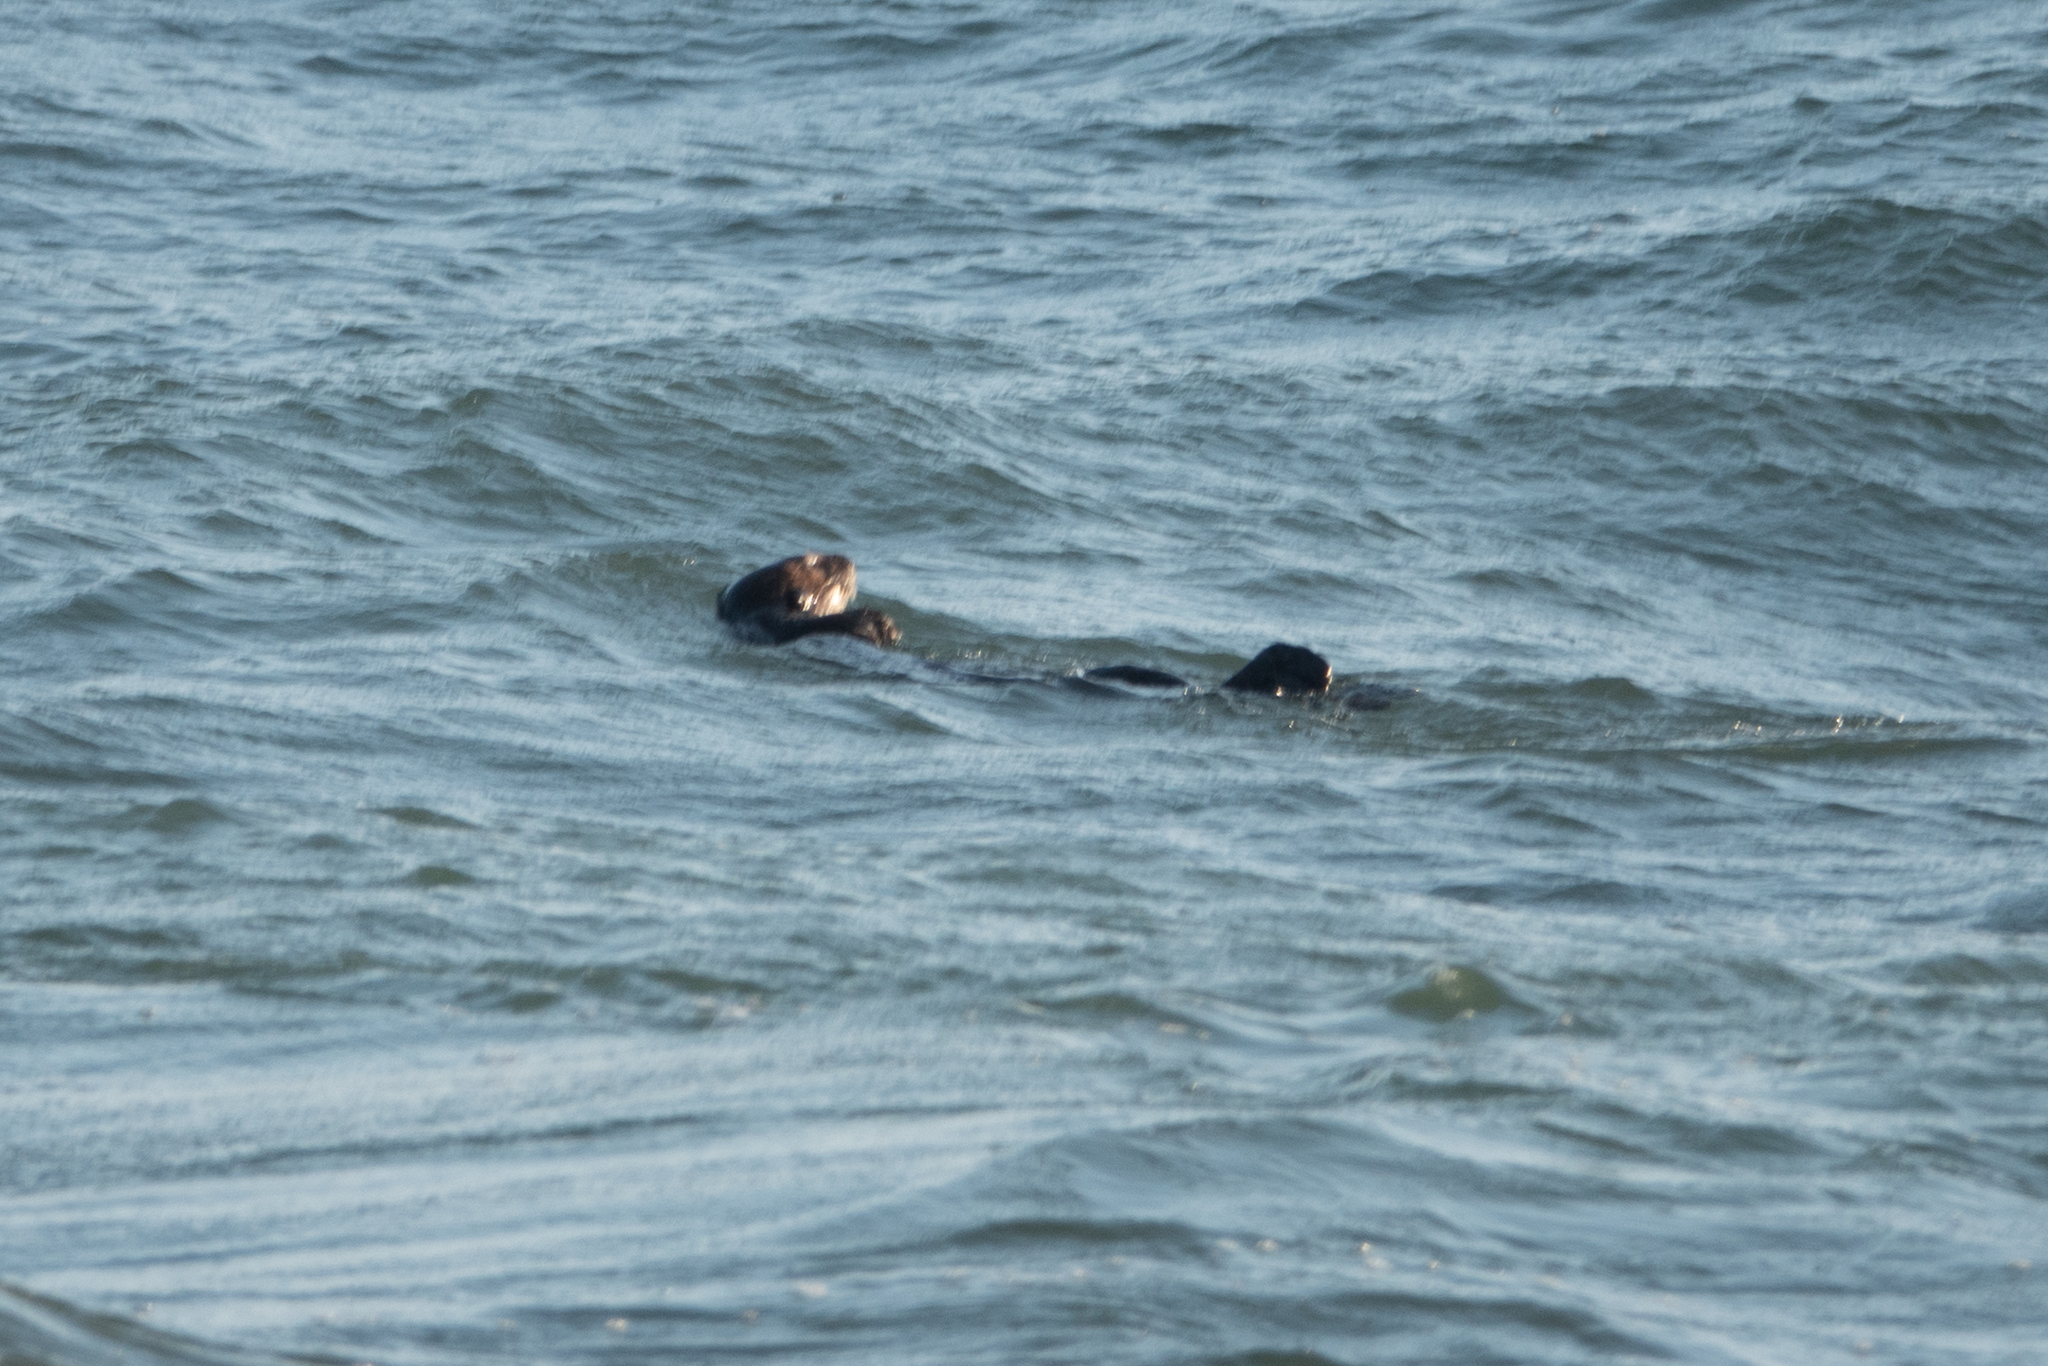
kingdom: Animalia
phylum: Chordata
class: Mammalia
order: Carnivora
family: Mustelidae
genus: Enhydra
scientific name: Enhydra lutris
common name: Sea otter
